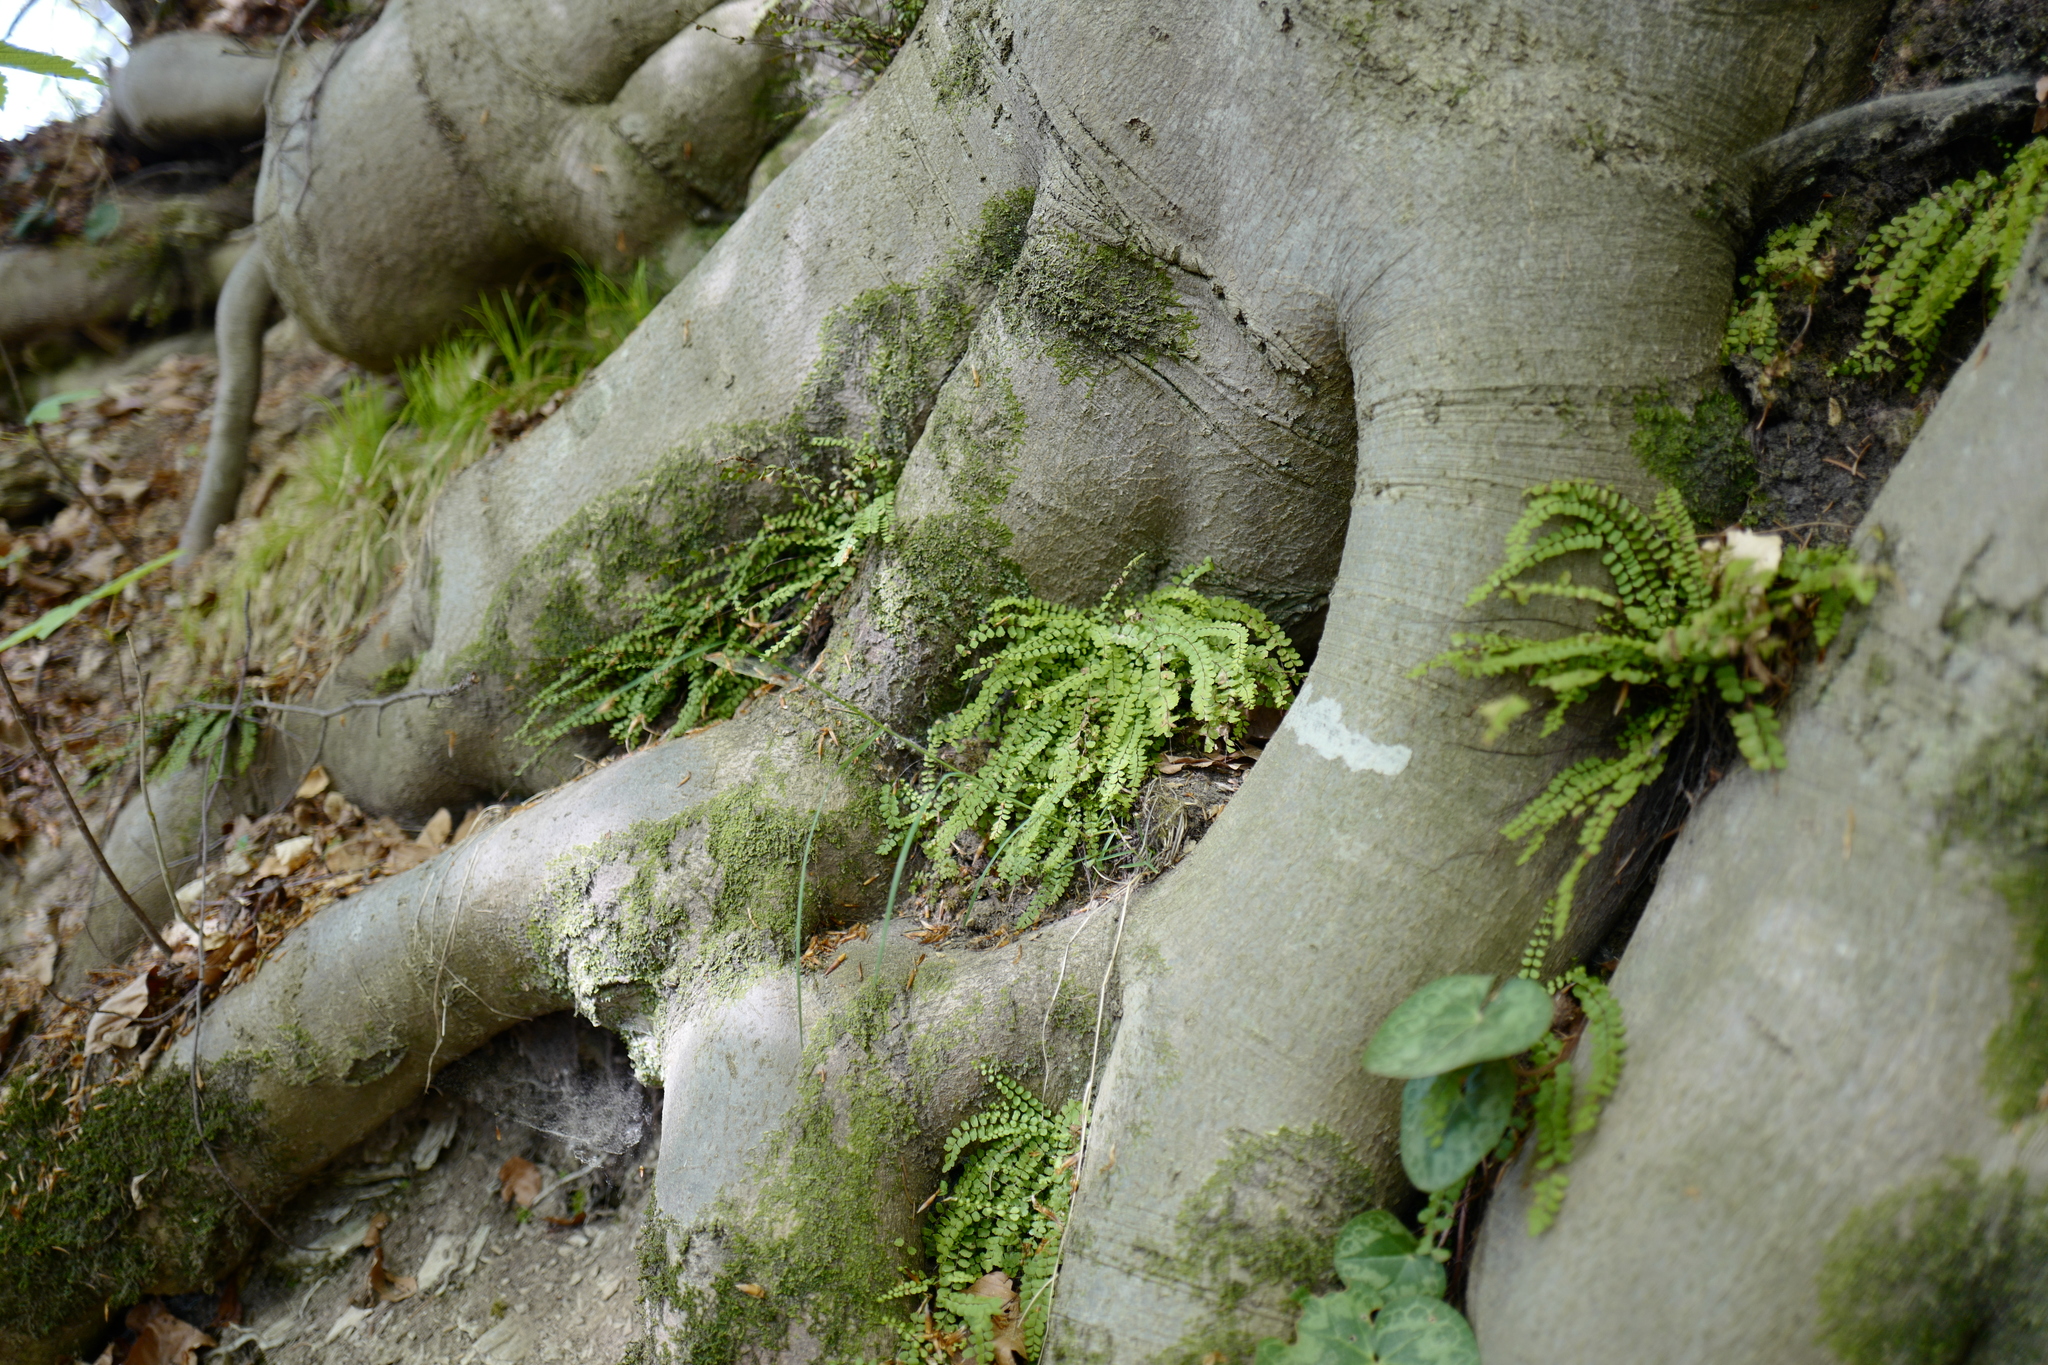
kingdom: Plantae
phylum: Tracheophyta
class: Polypodiopsida
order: Polypodiales
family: Aspleniaceae
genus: Asplenium
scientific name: Asplenium trichomanes
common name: Maidenhair spleenwort
